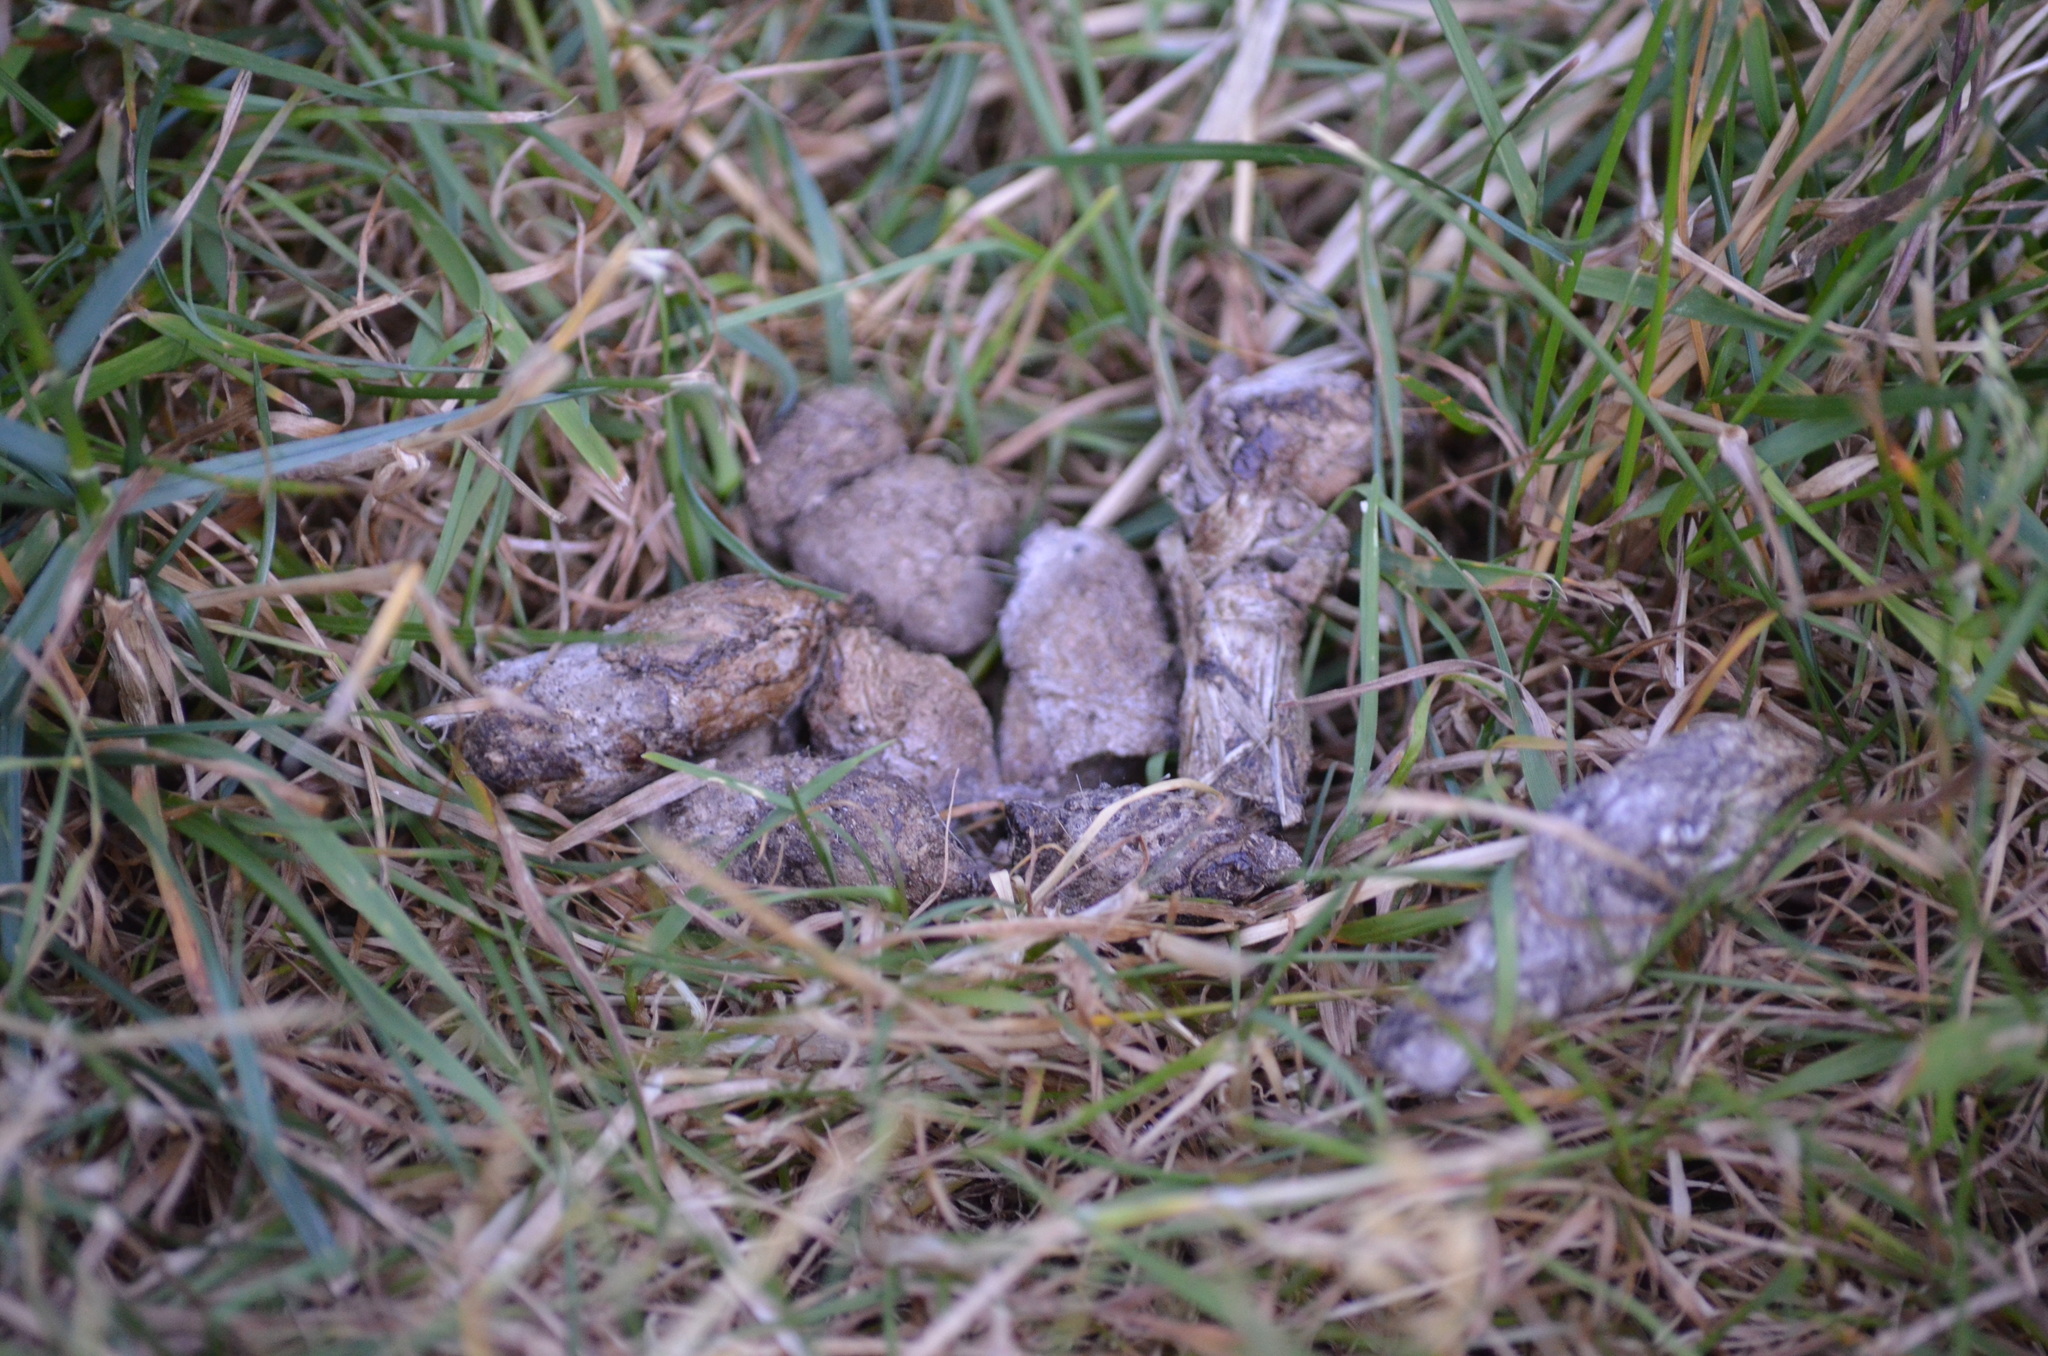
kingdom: Animalia
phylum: Chordata
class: Mammalia
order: Carnivora
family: Felidae
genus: Felis
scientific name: Felis catus
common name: Domestic cat
